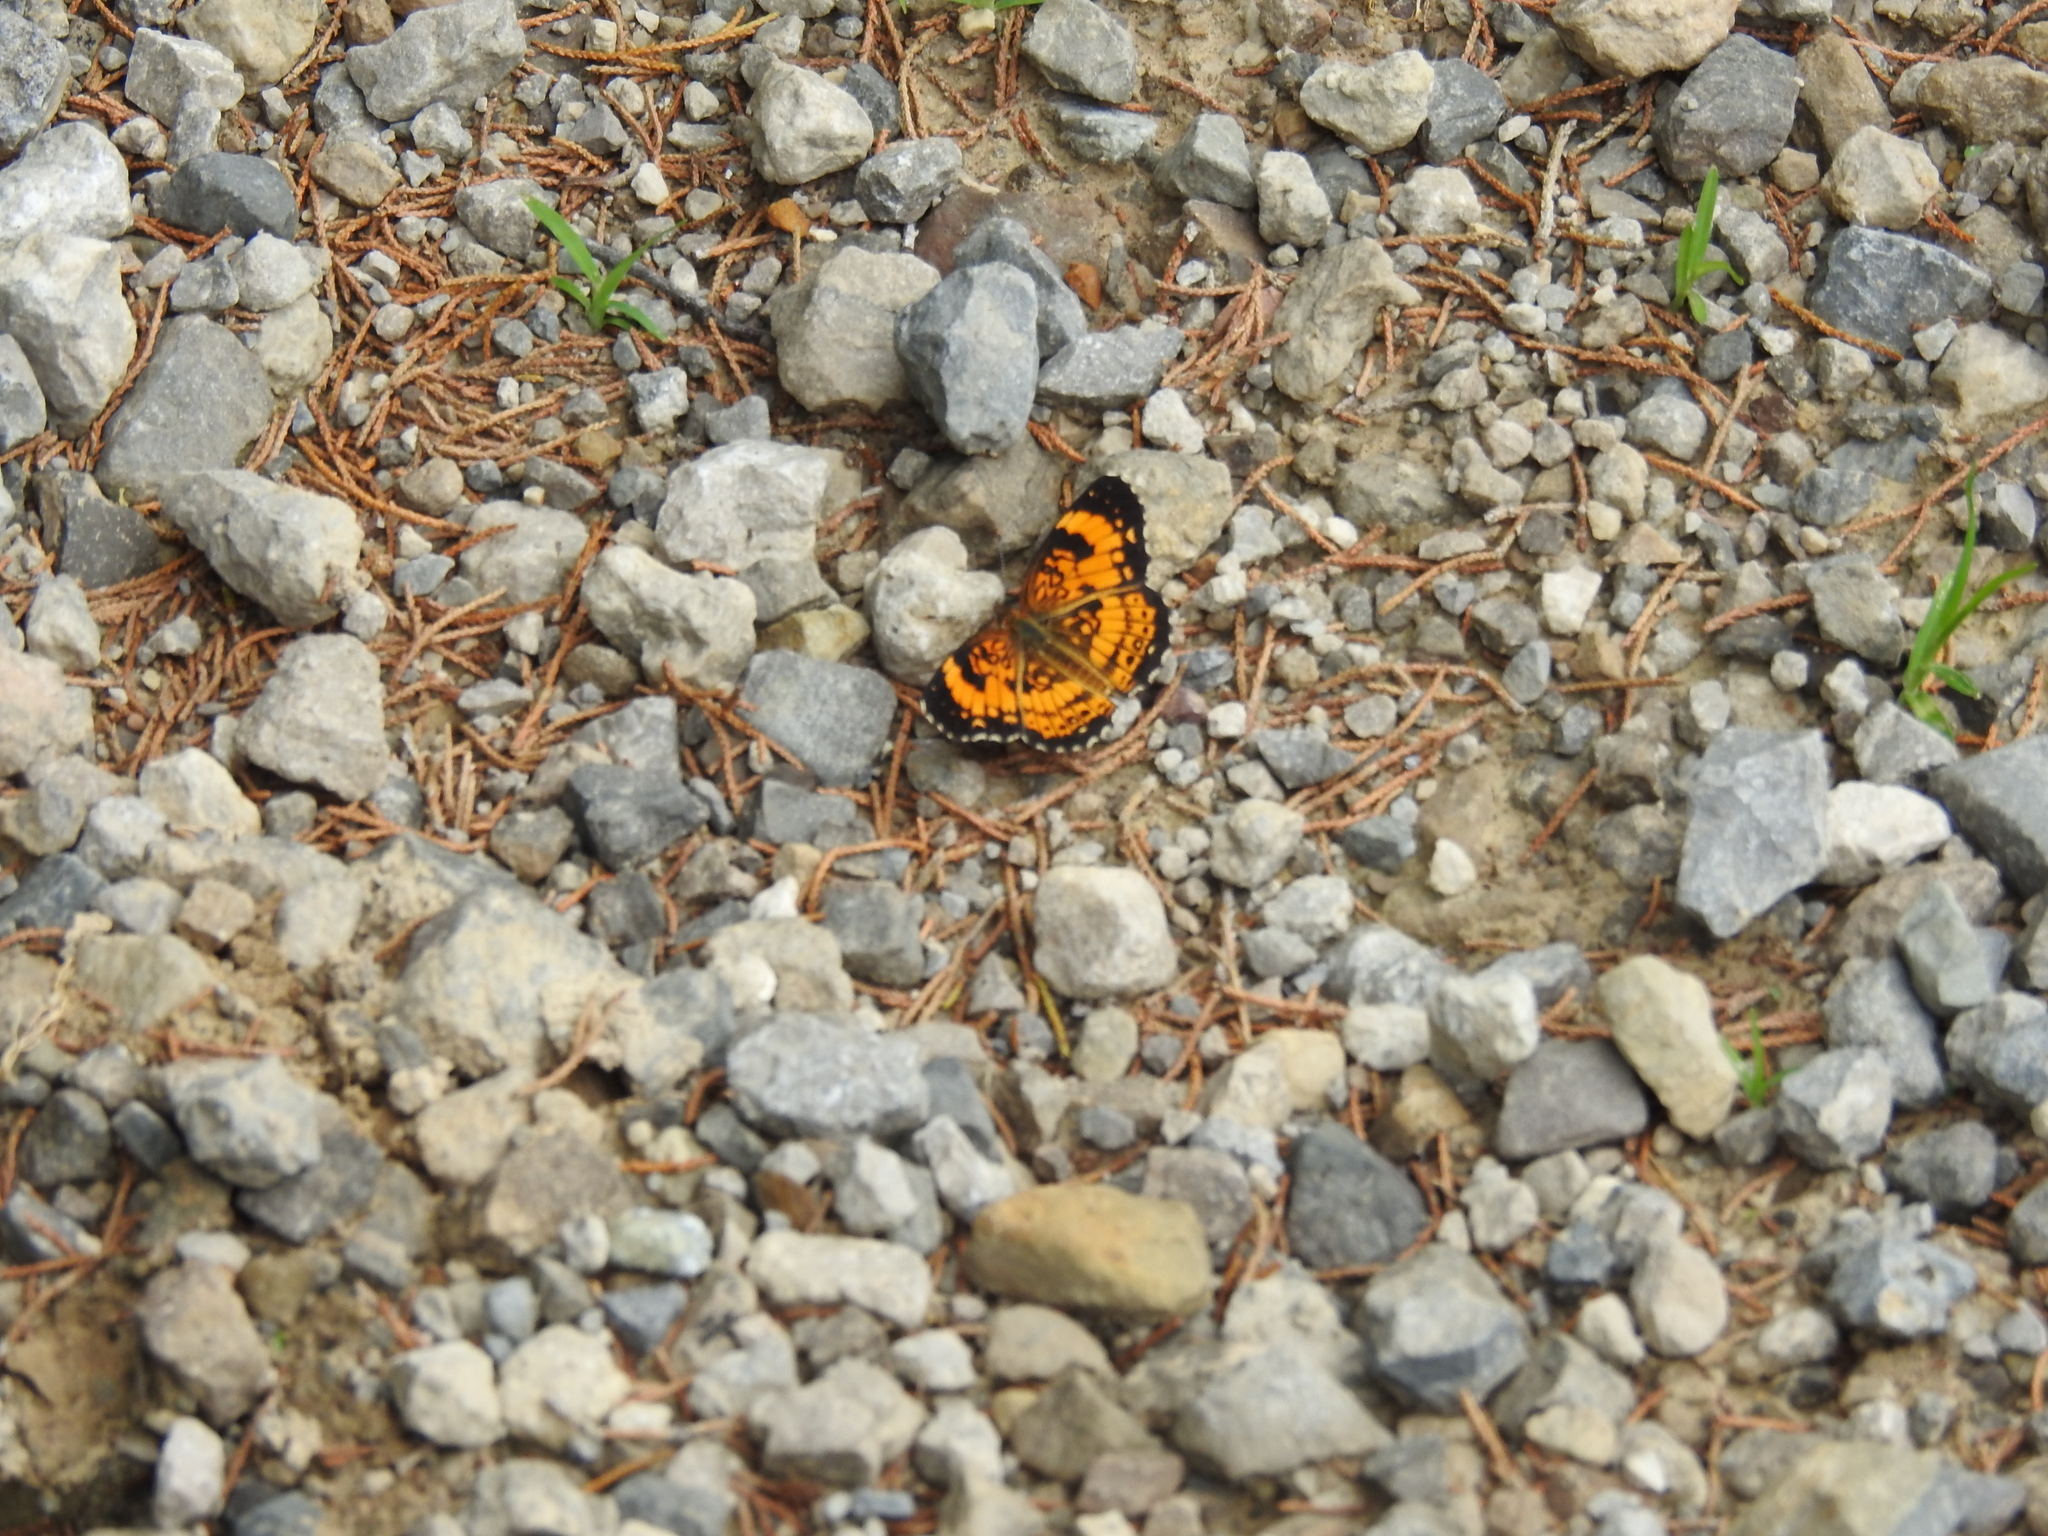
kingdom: Animalia
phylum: Arthropoda
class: Insecta
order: Lepidoptera
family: Nymphalidae
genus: Chlosyne
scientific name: Chlosyne nycteis
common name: Silvery checkerspot
